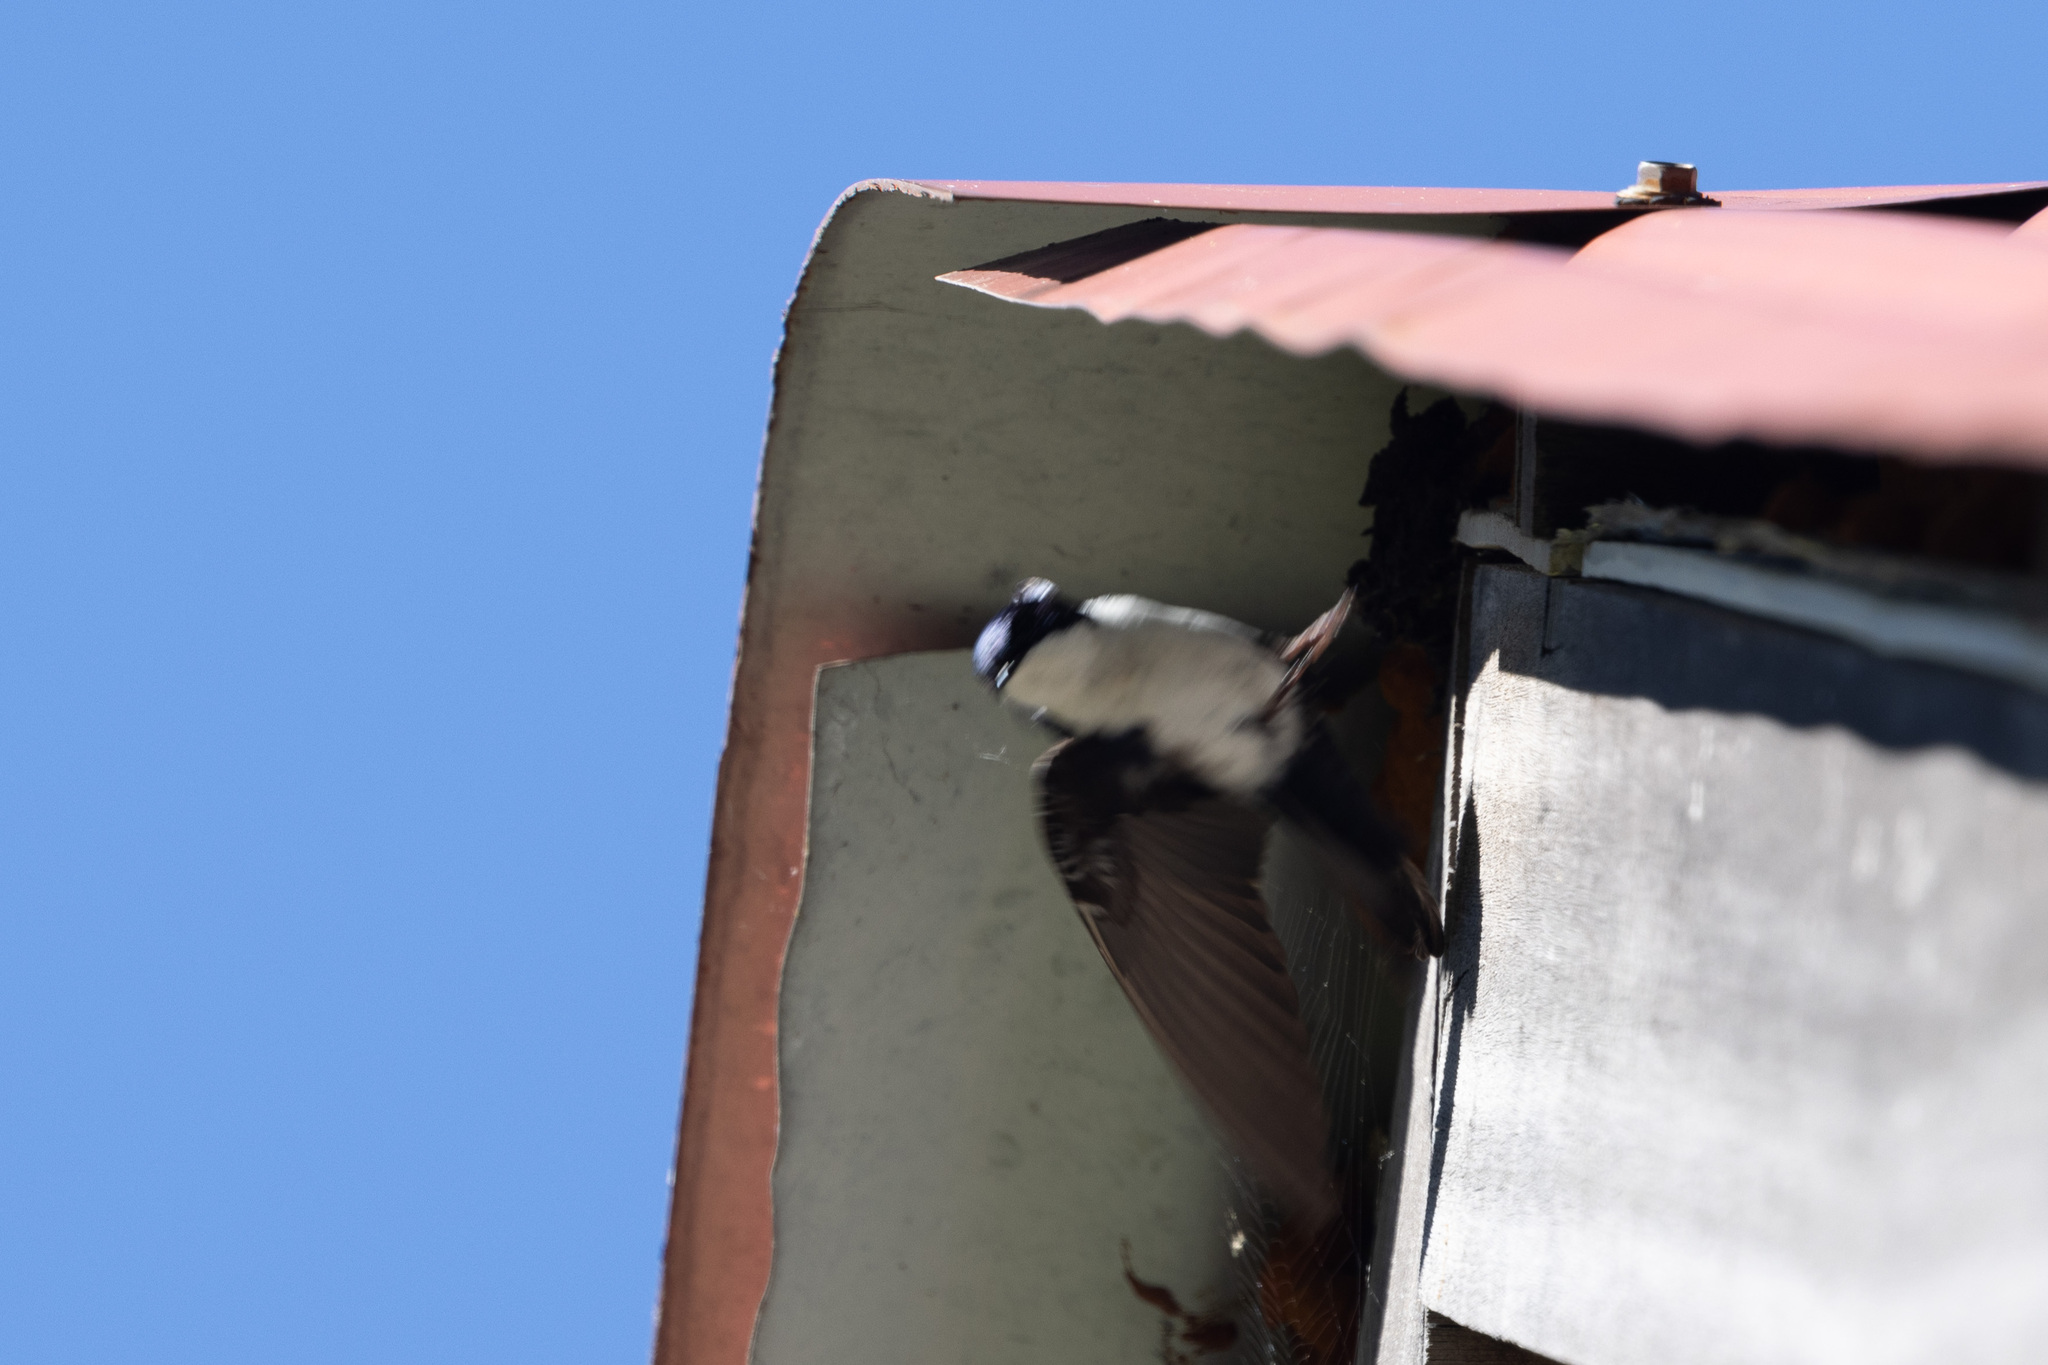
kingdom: Animalia
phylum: Chordata
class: Aves
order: Passeriformes
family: Hirundinidae
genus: Notiochelidon
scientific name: Notiochelidon cyanoleuca
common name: Blue-and-white swallow
